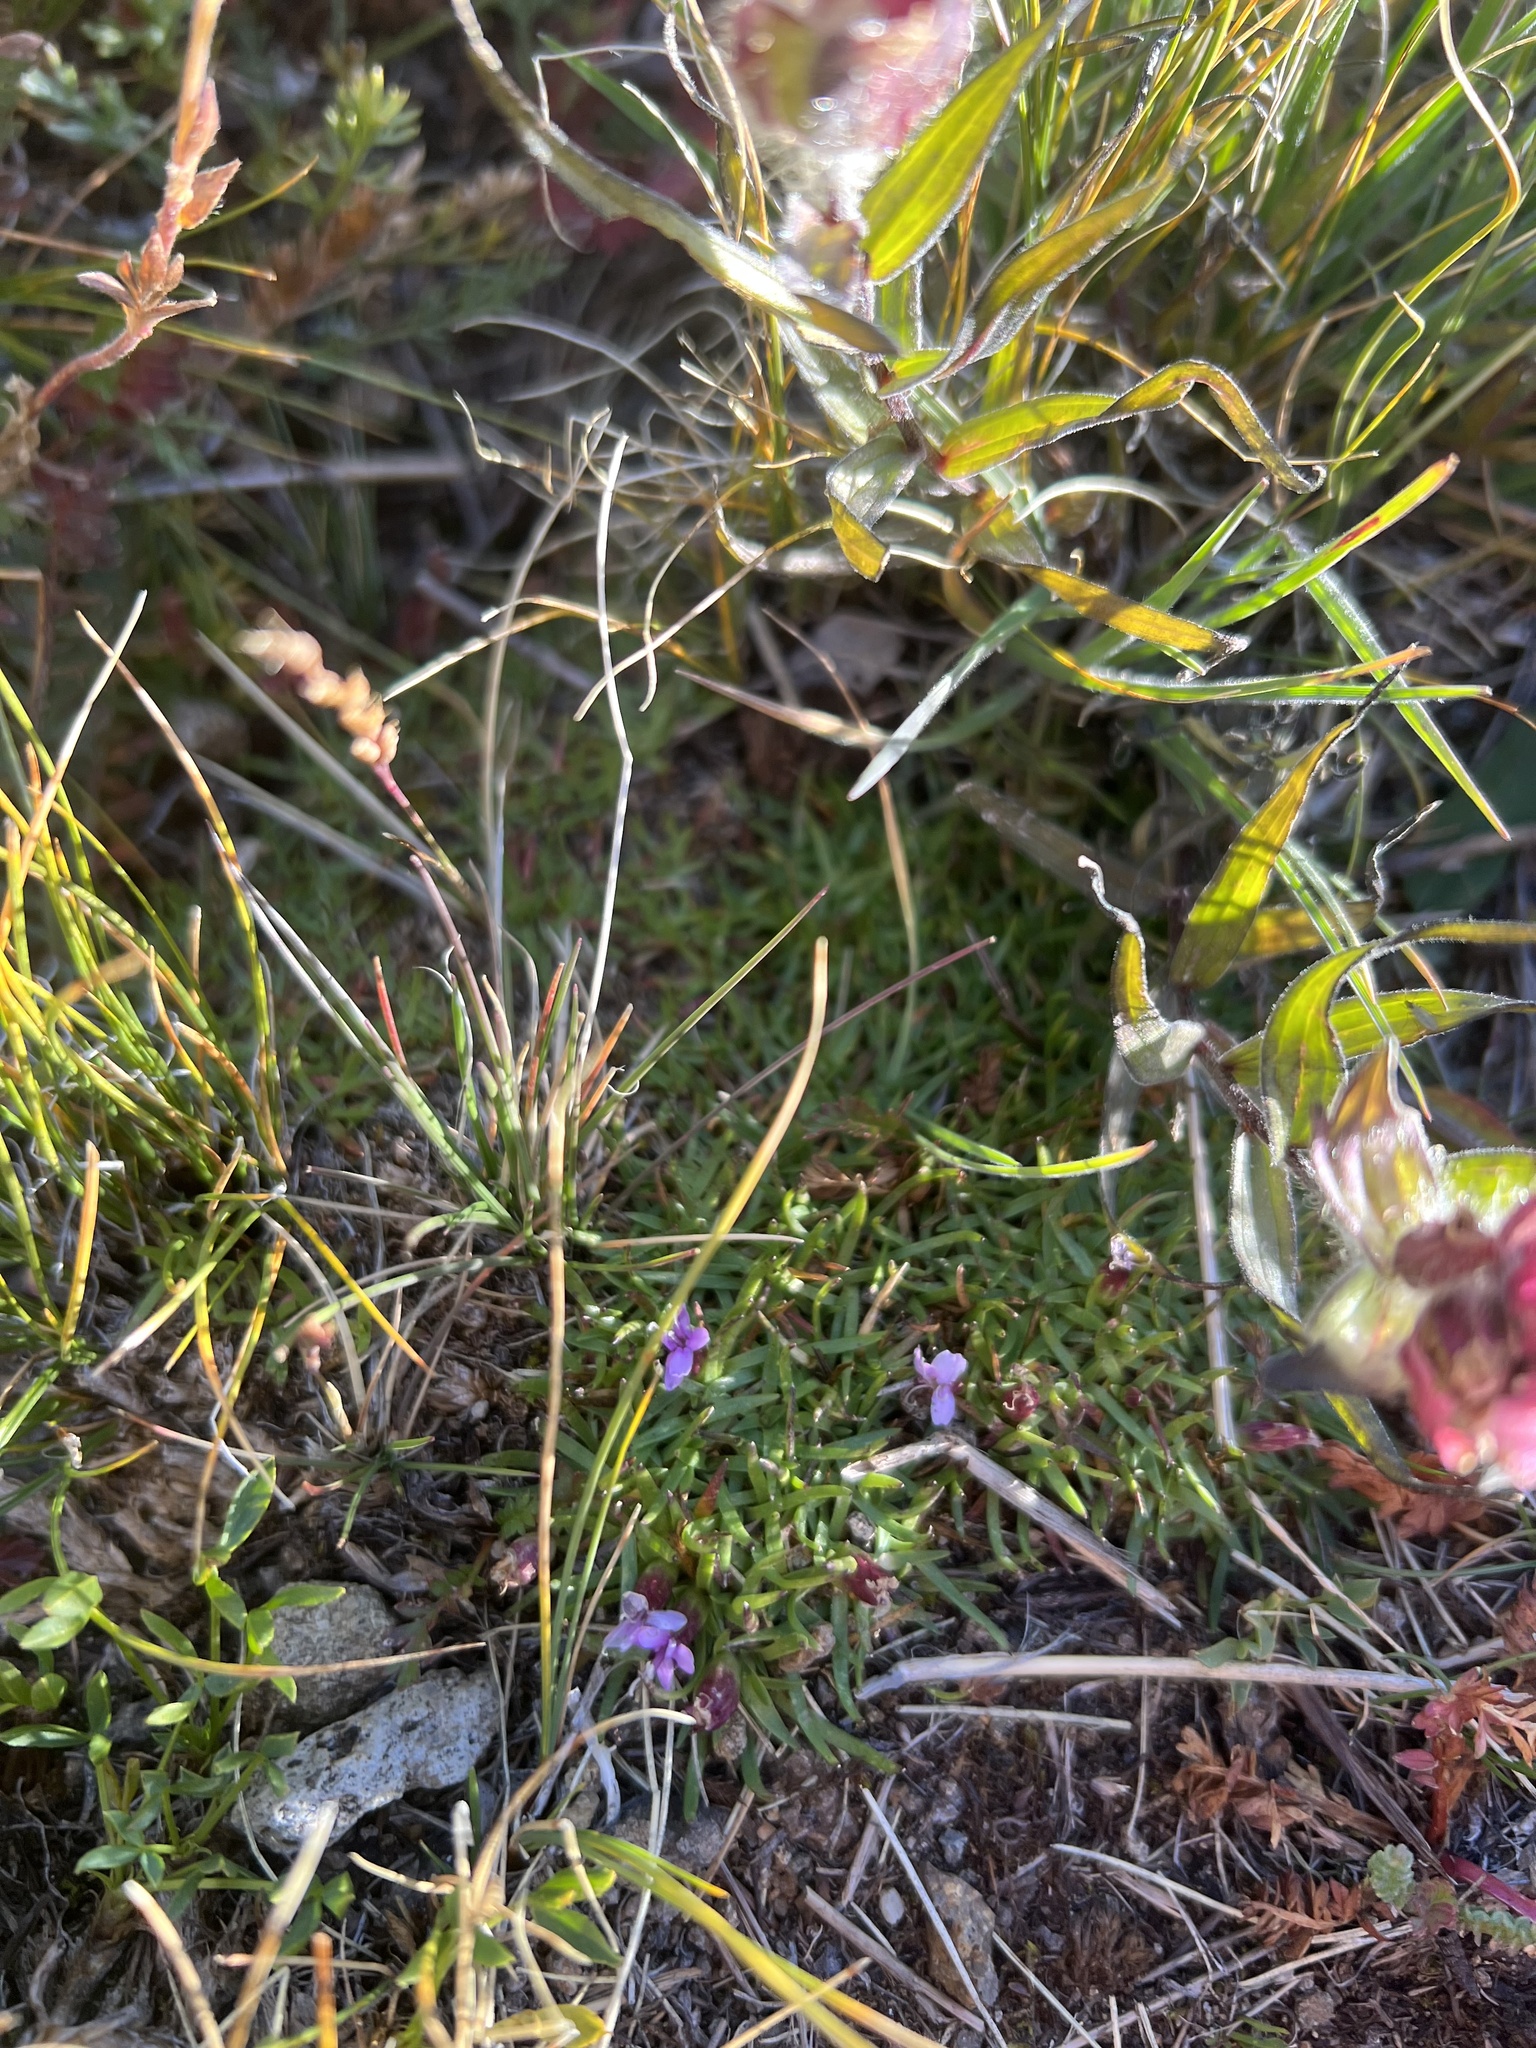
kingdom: Plantae
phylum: Tracheophyta
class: Magnoliopsida
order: Caryophyllales
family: Caryophyllaceae
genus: Silene
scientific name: Silene acaulis
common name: Moss campion
